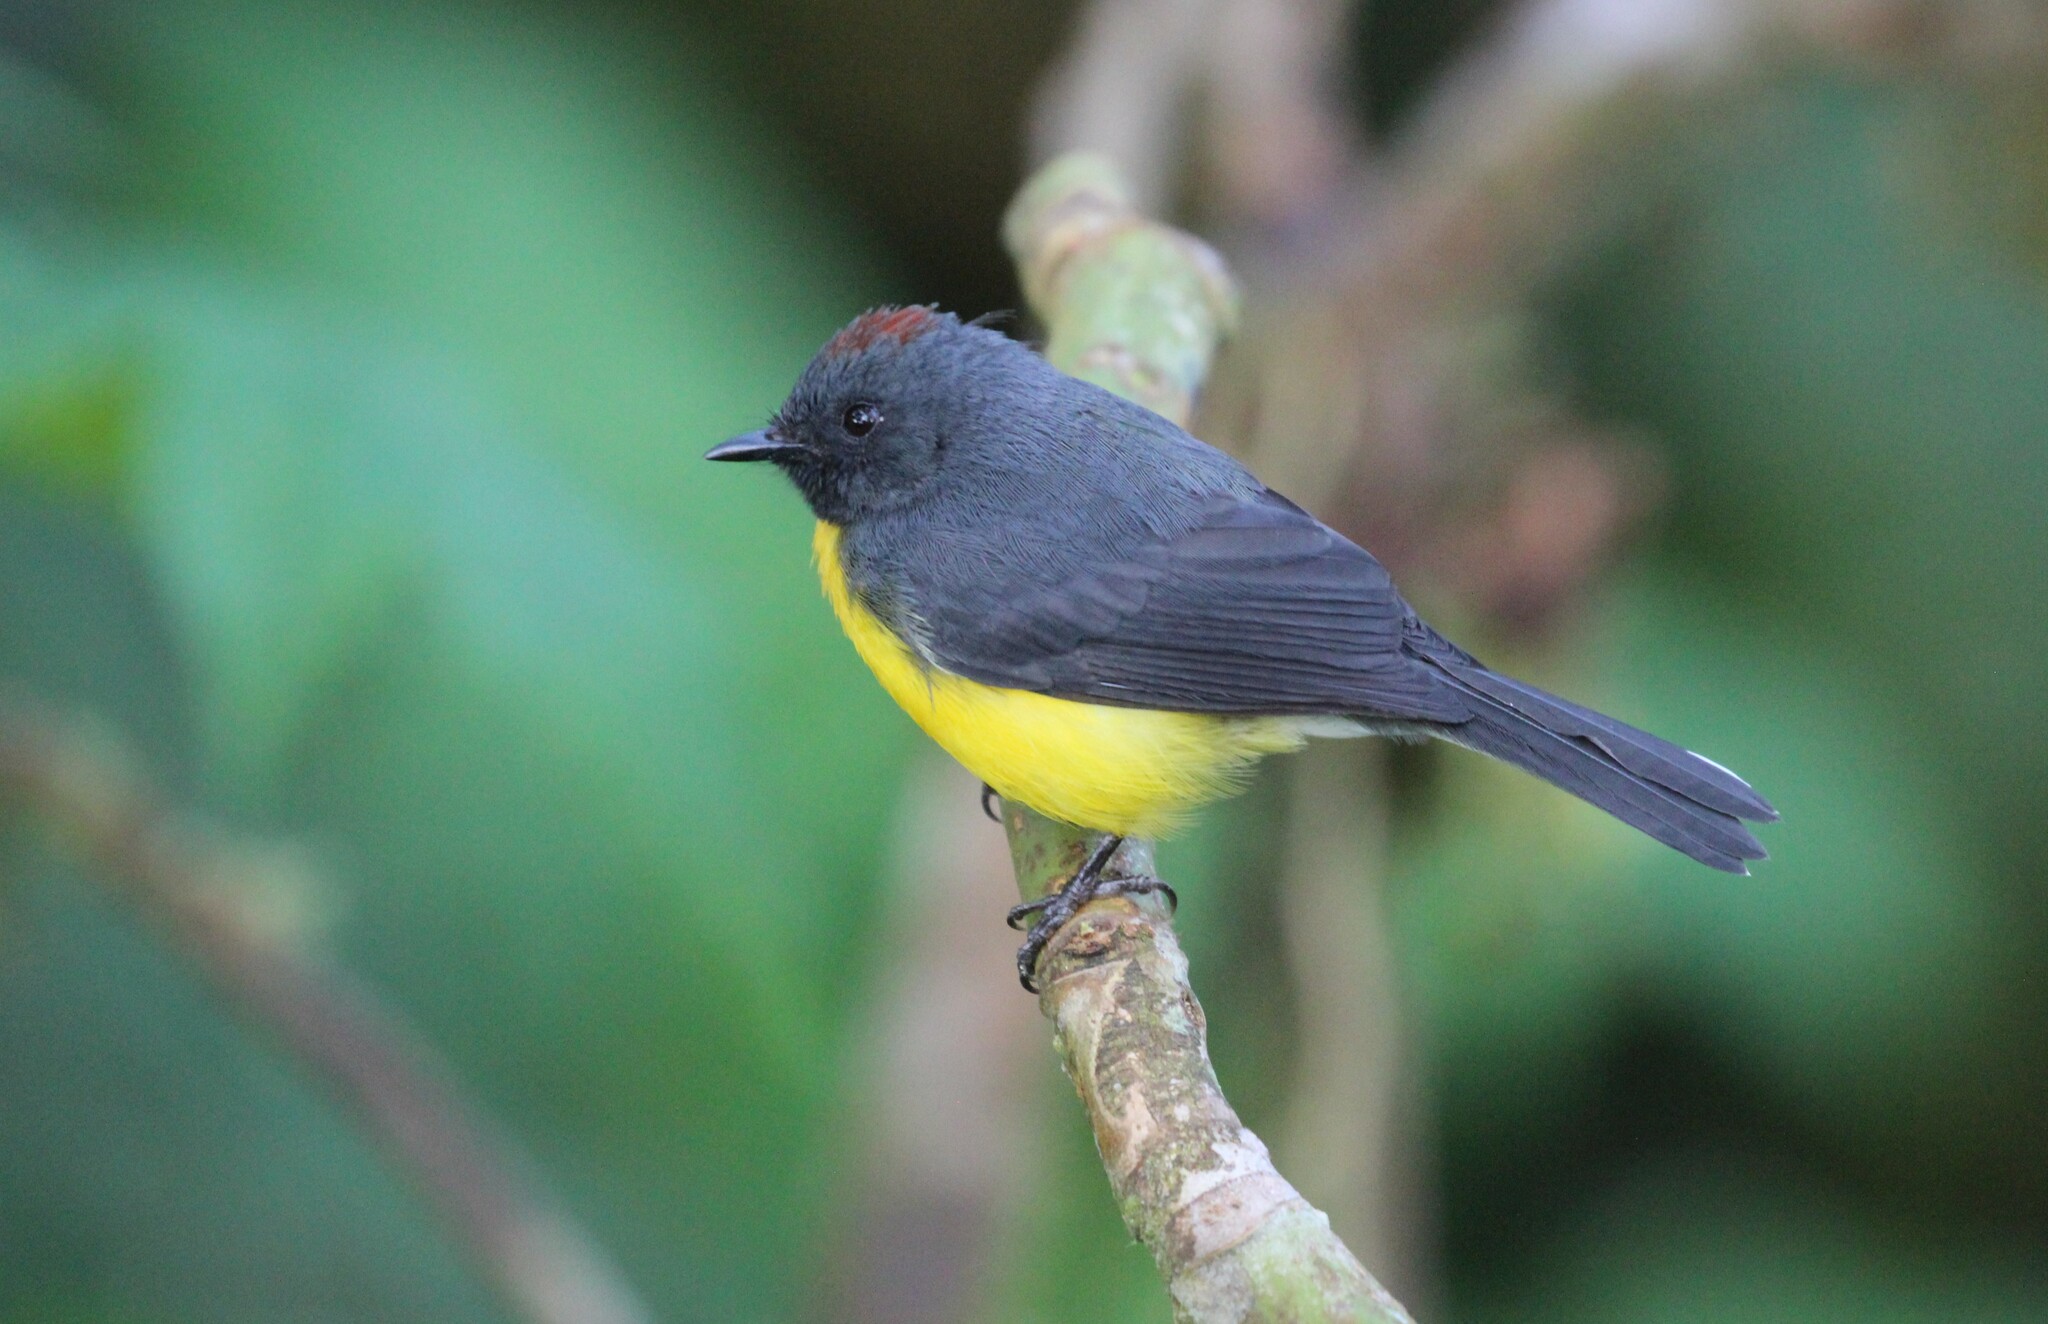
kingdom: Animalia
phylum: Chordata
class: Aves
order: Passeriformes
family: Parulidae
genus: Myioborus
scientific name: Myioborus miniatus
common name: Slate-throated redstart
